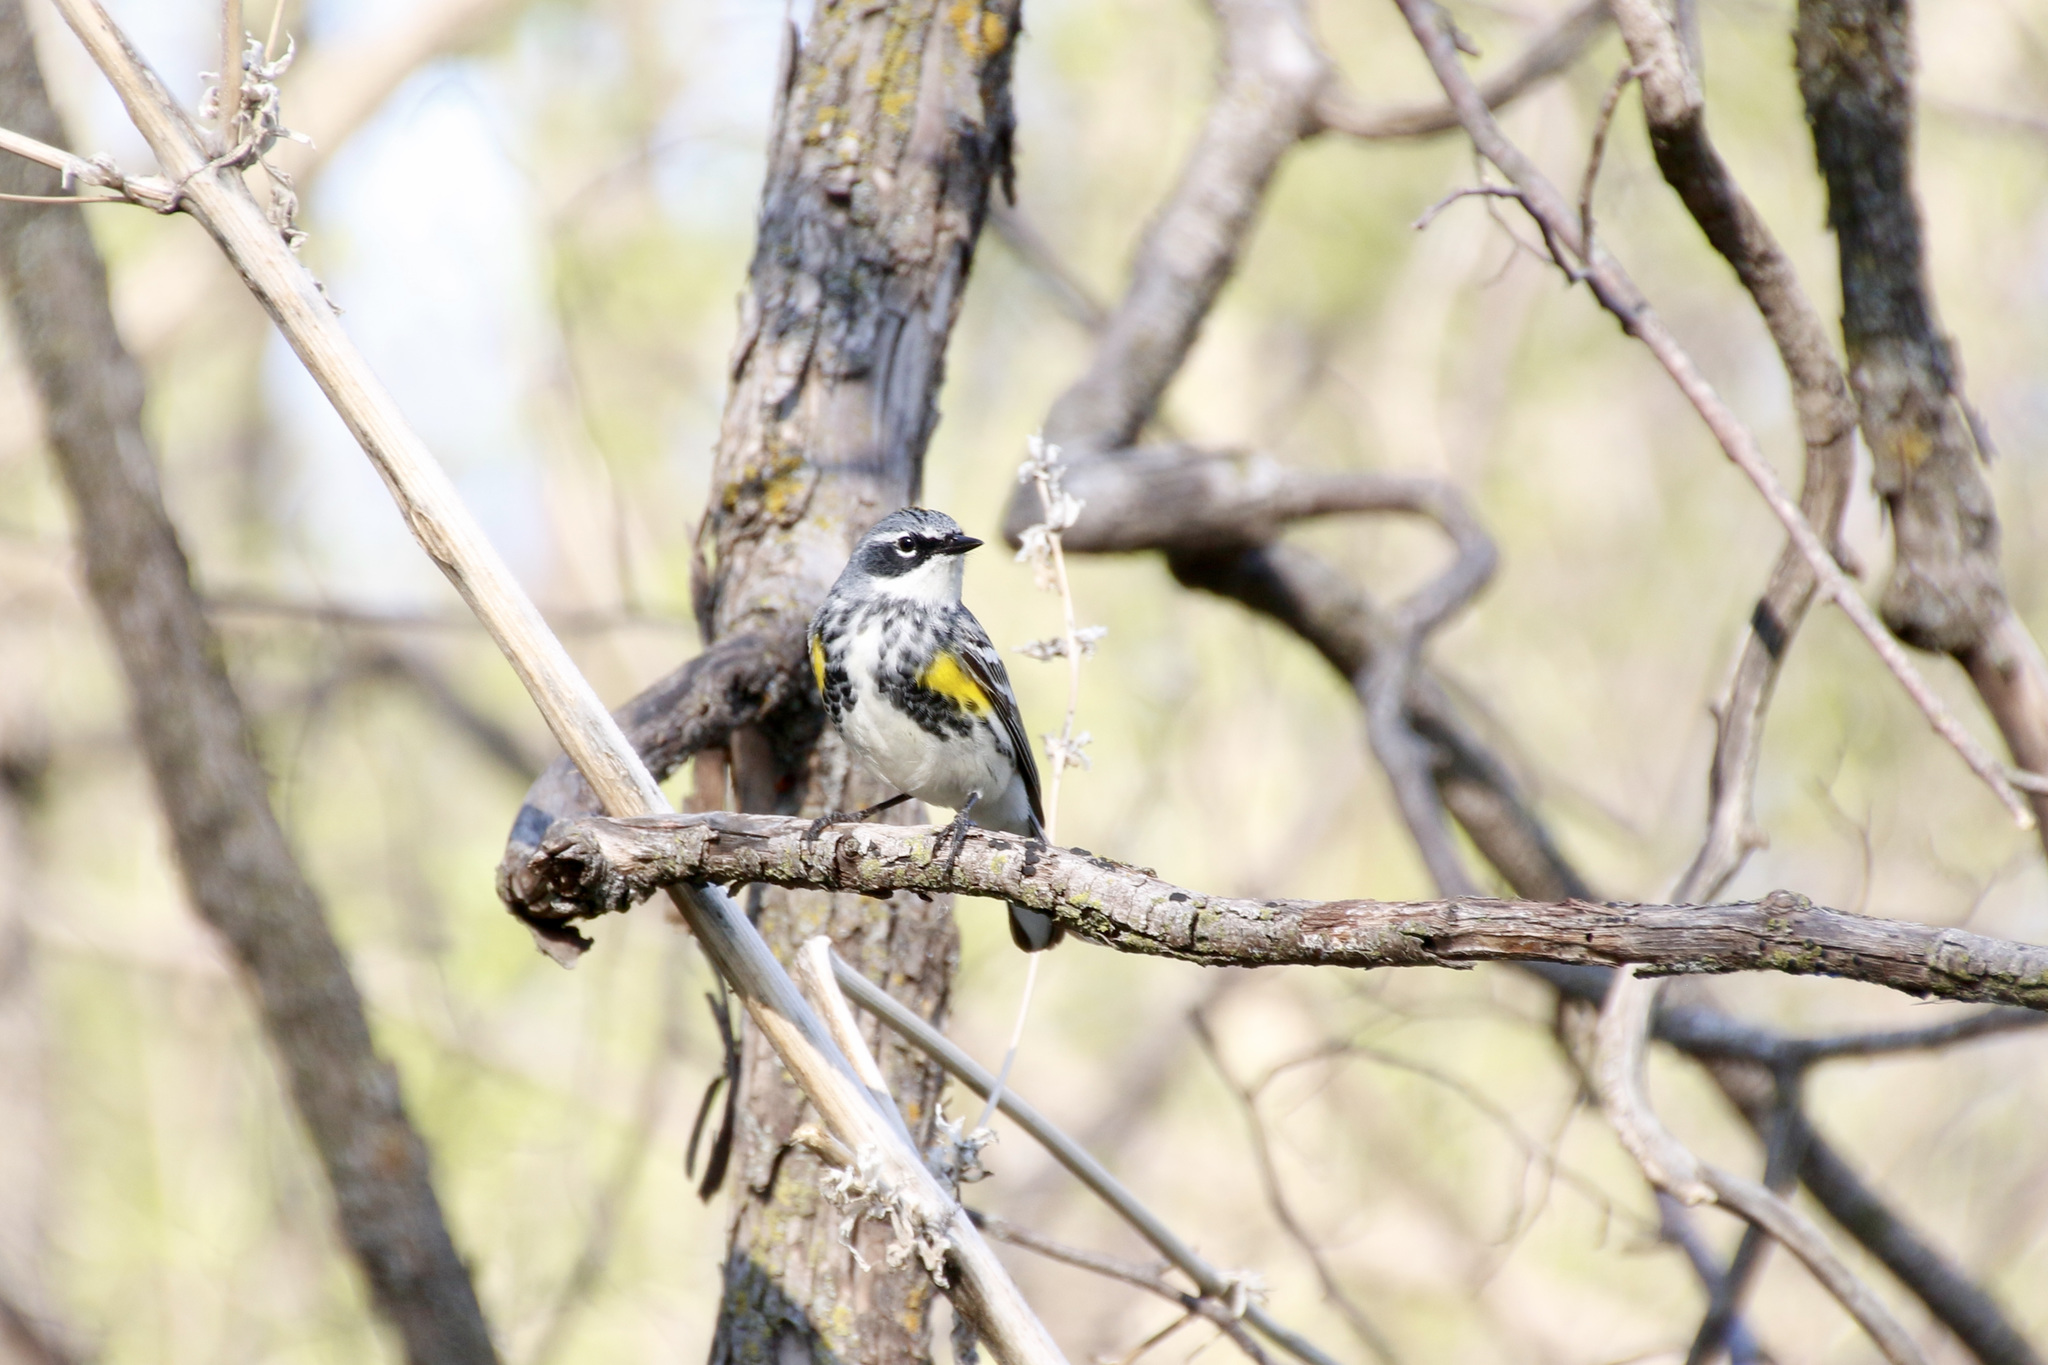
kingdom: Animalia
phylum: Chordata
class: Aves
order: Passeriformes
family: Parulidae
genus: Setophaga
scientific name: Setophaga coronata
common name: Myrtle warbler
